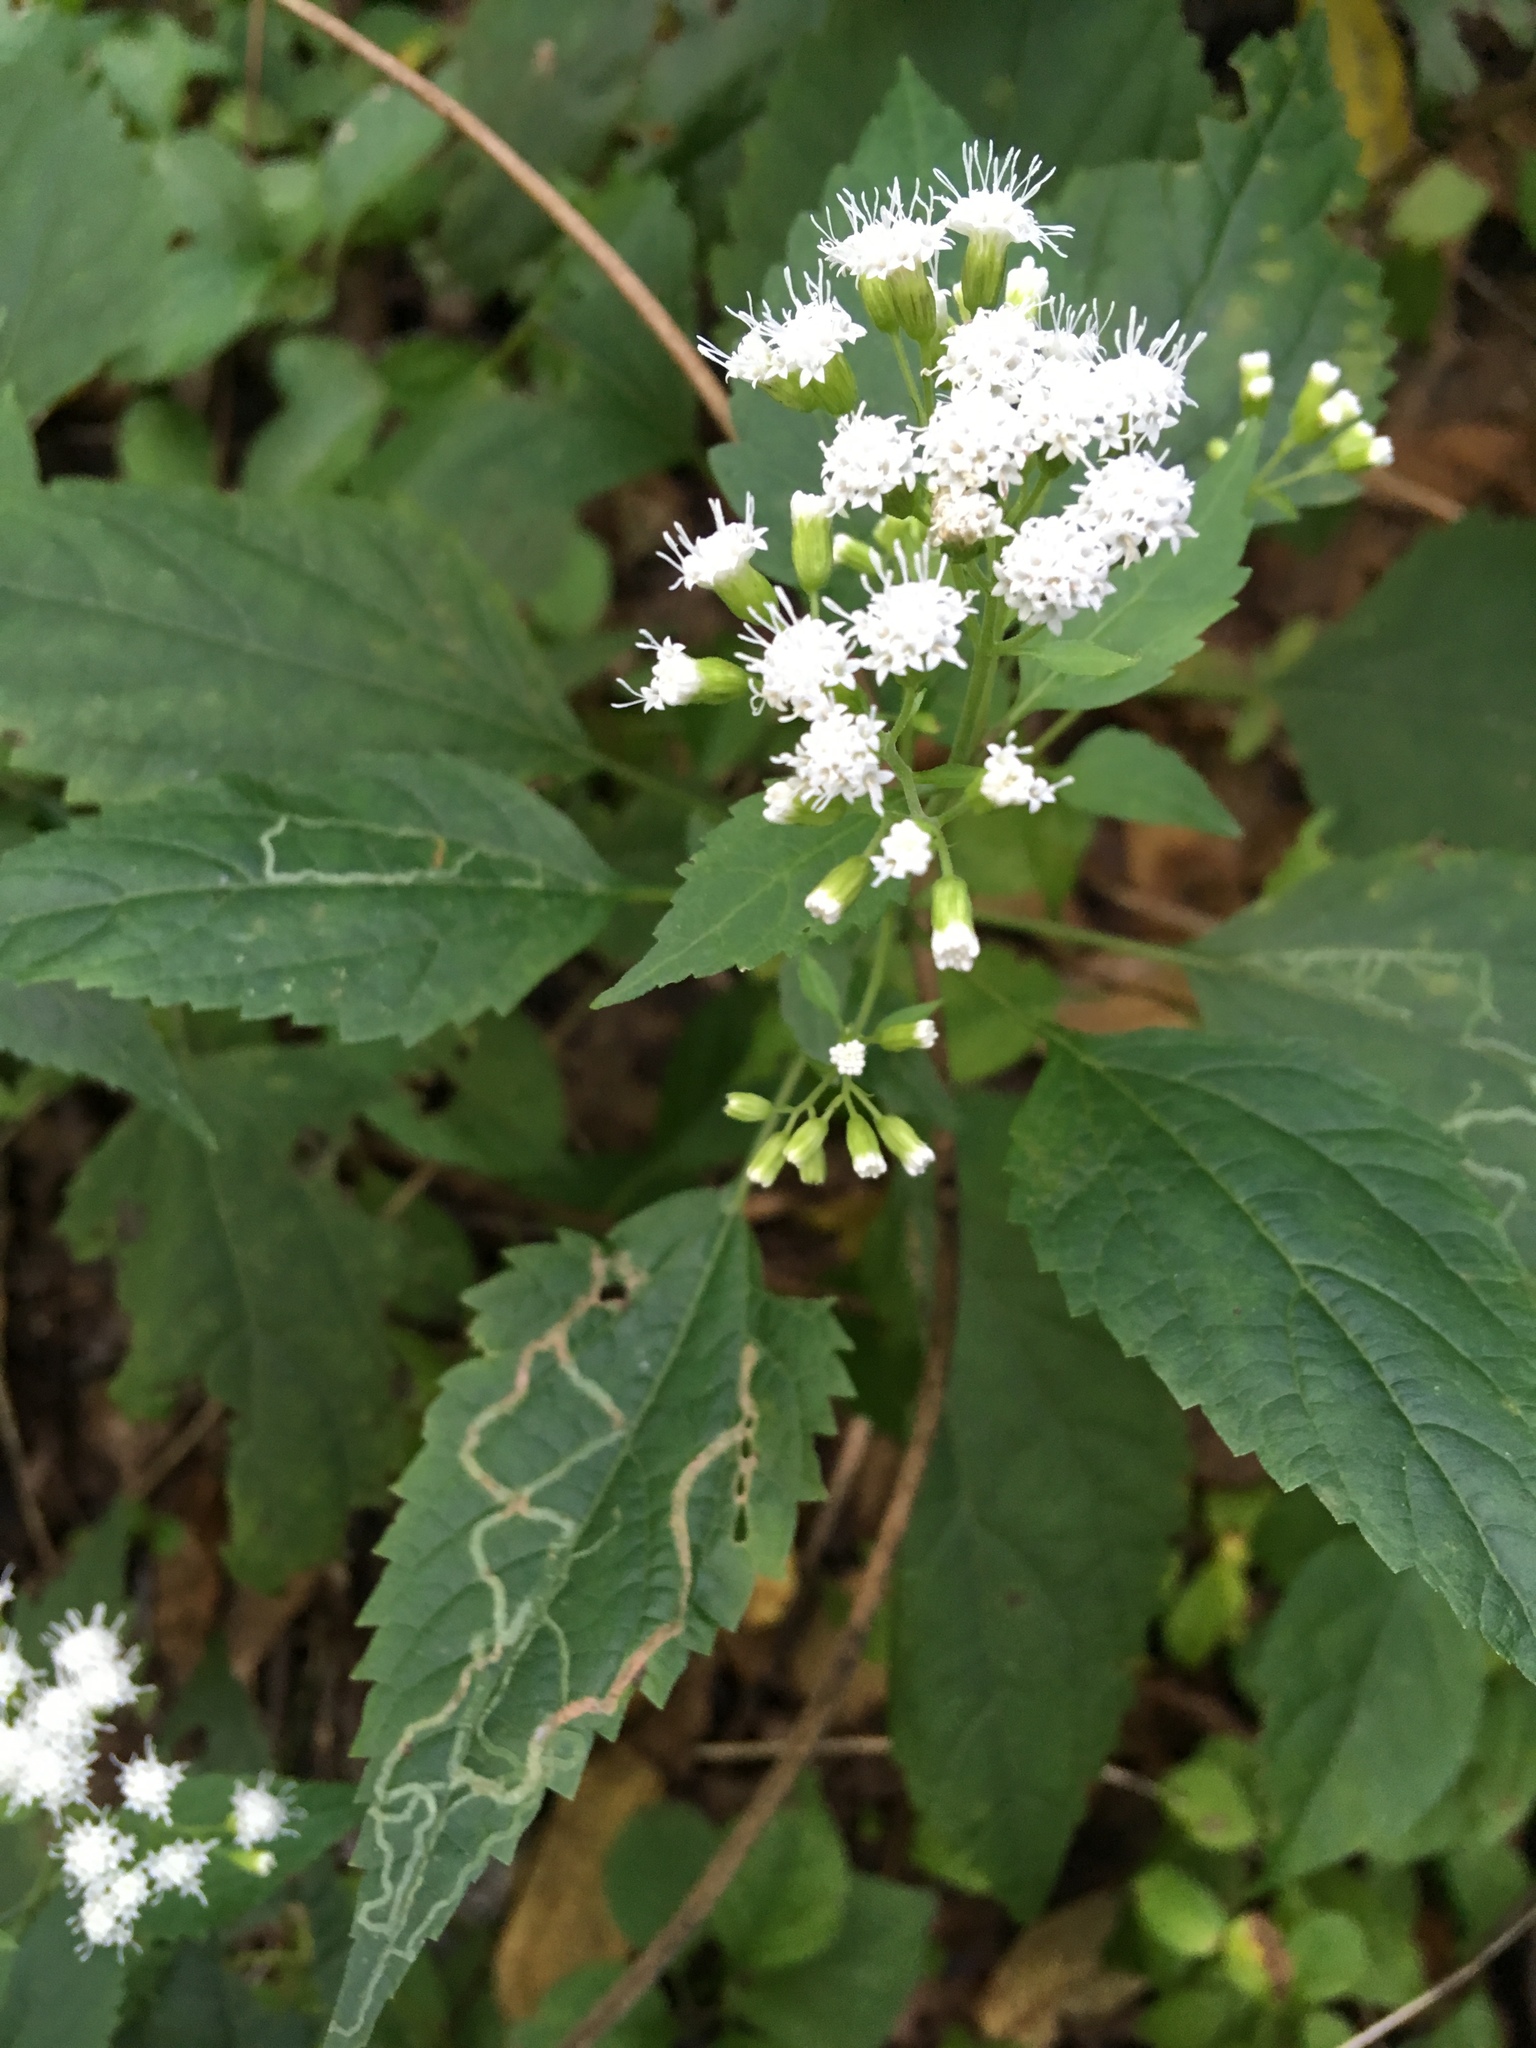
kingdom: Plantae
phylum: Tracheophyta
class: Magnoliopsida
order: Asterales
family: Asteraceae
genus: Ageratina
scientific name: Ageratina altissima
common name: White snakeroot
